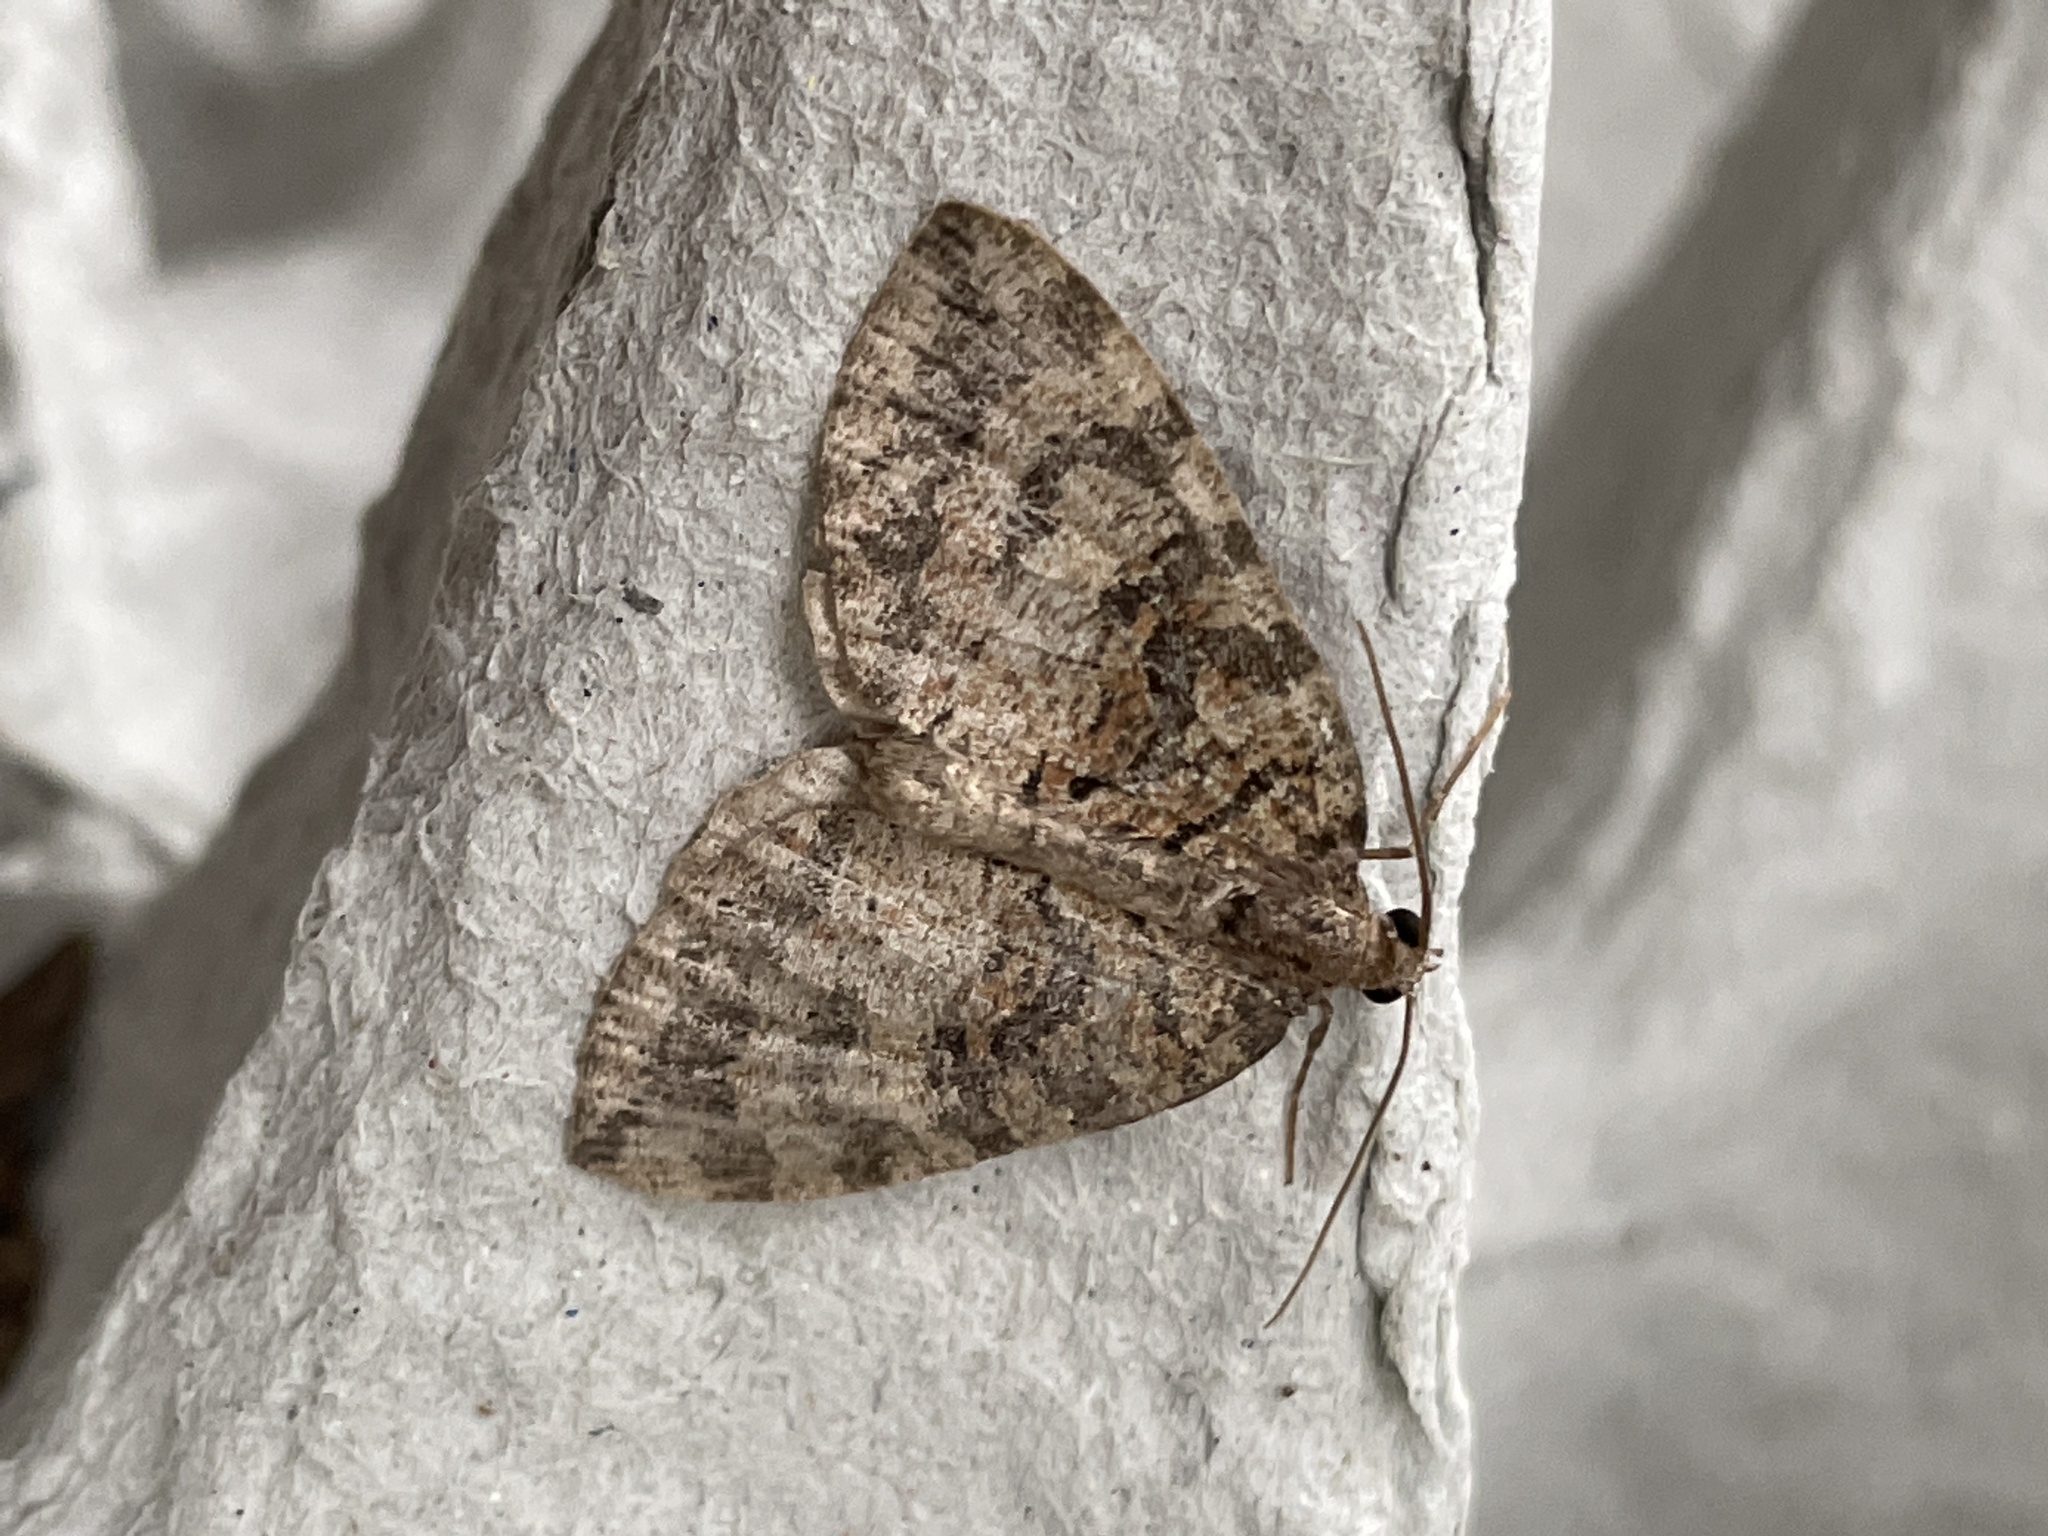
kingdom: Animalia
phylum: Arthropoda
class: Insecta
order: Lepidoptera
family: Geometridae
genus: Hydriomena
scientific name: Hydriomena furcata
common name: July highflyer
